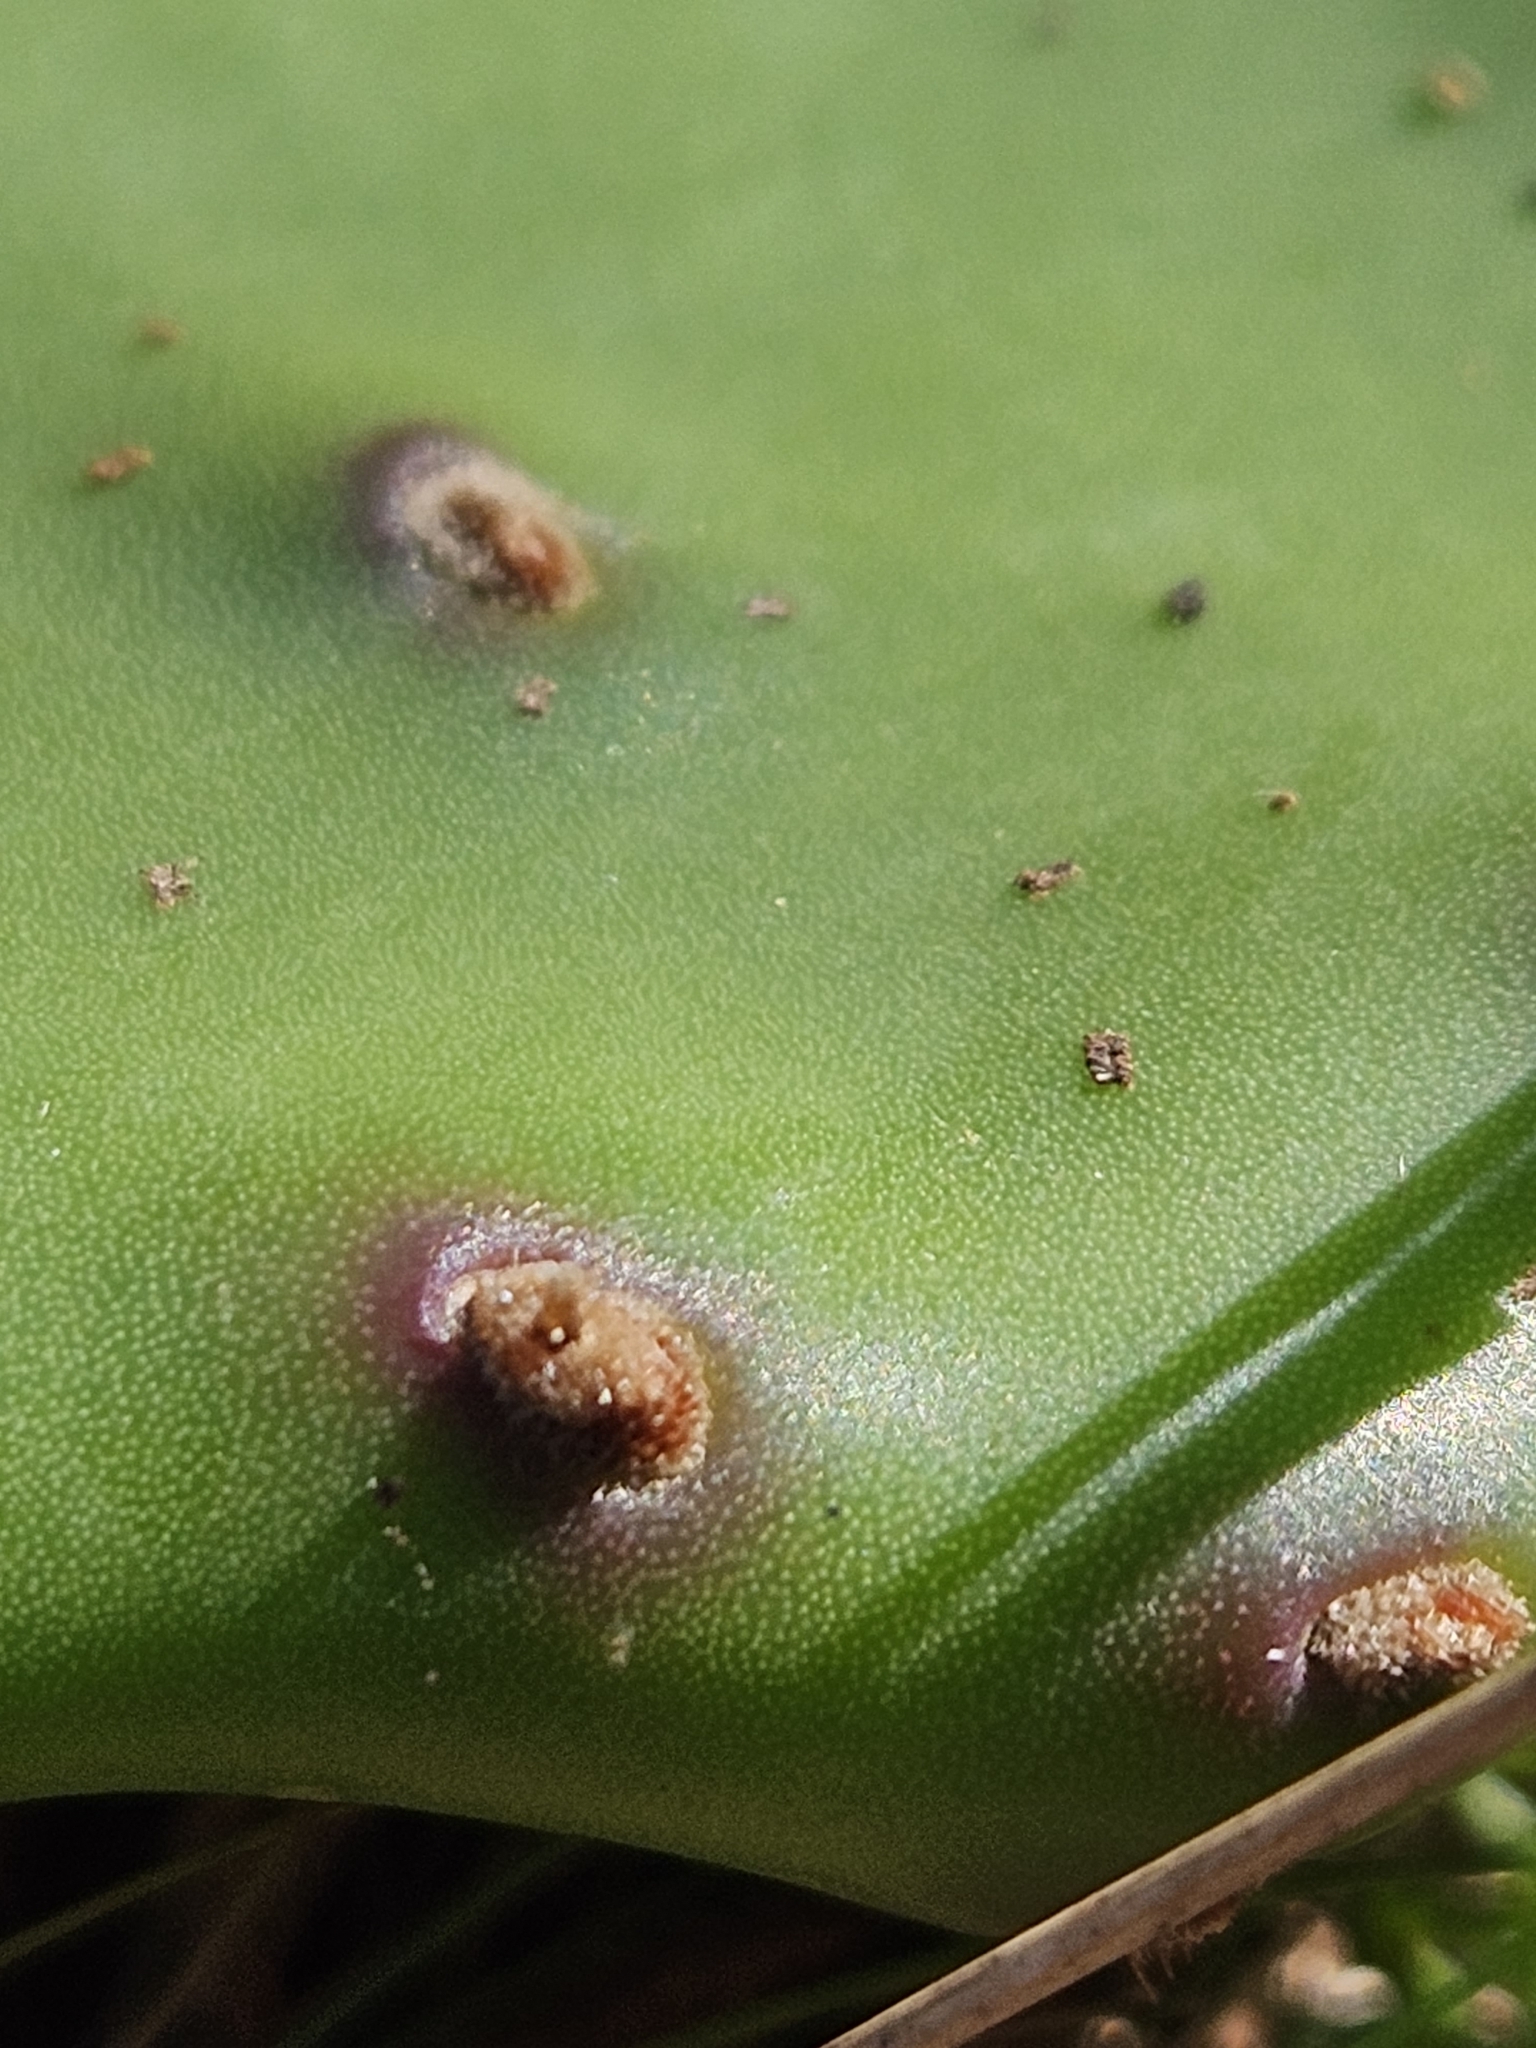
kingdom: Plantae
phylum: Tracheophyta
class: Magnoliopsida
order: Caryophyllales
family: Cactaceae
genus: Opuntia
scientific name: Opuntia humifusa
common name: Eastern prickly-pear
